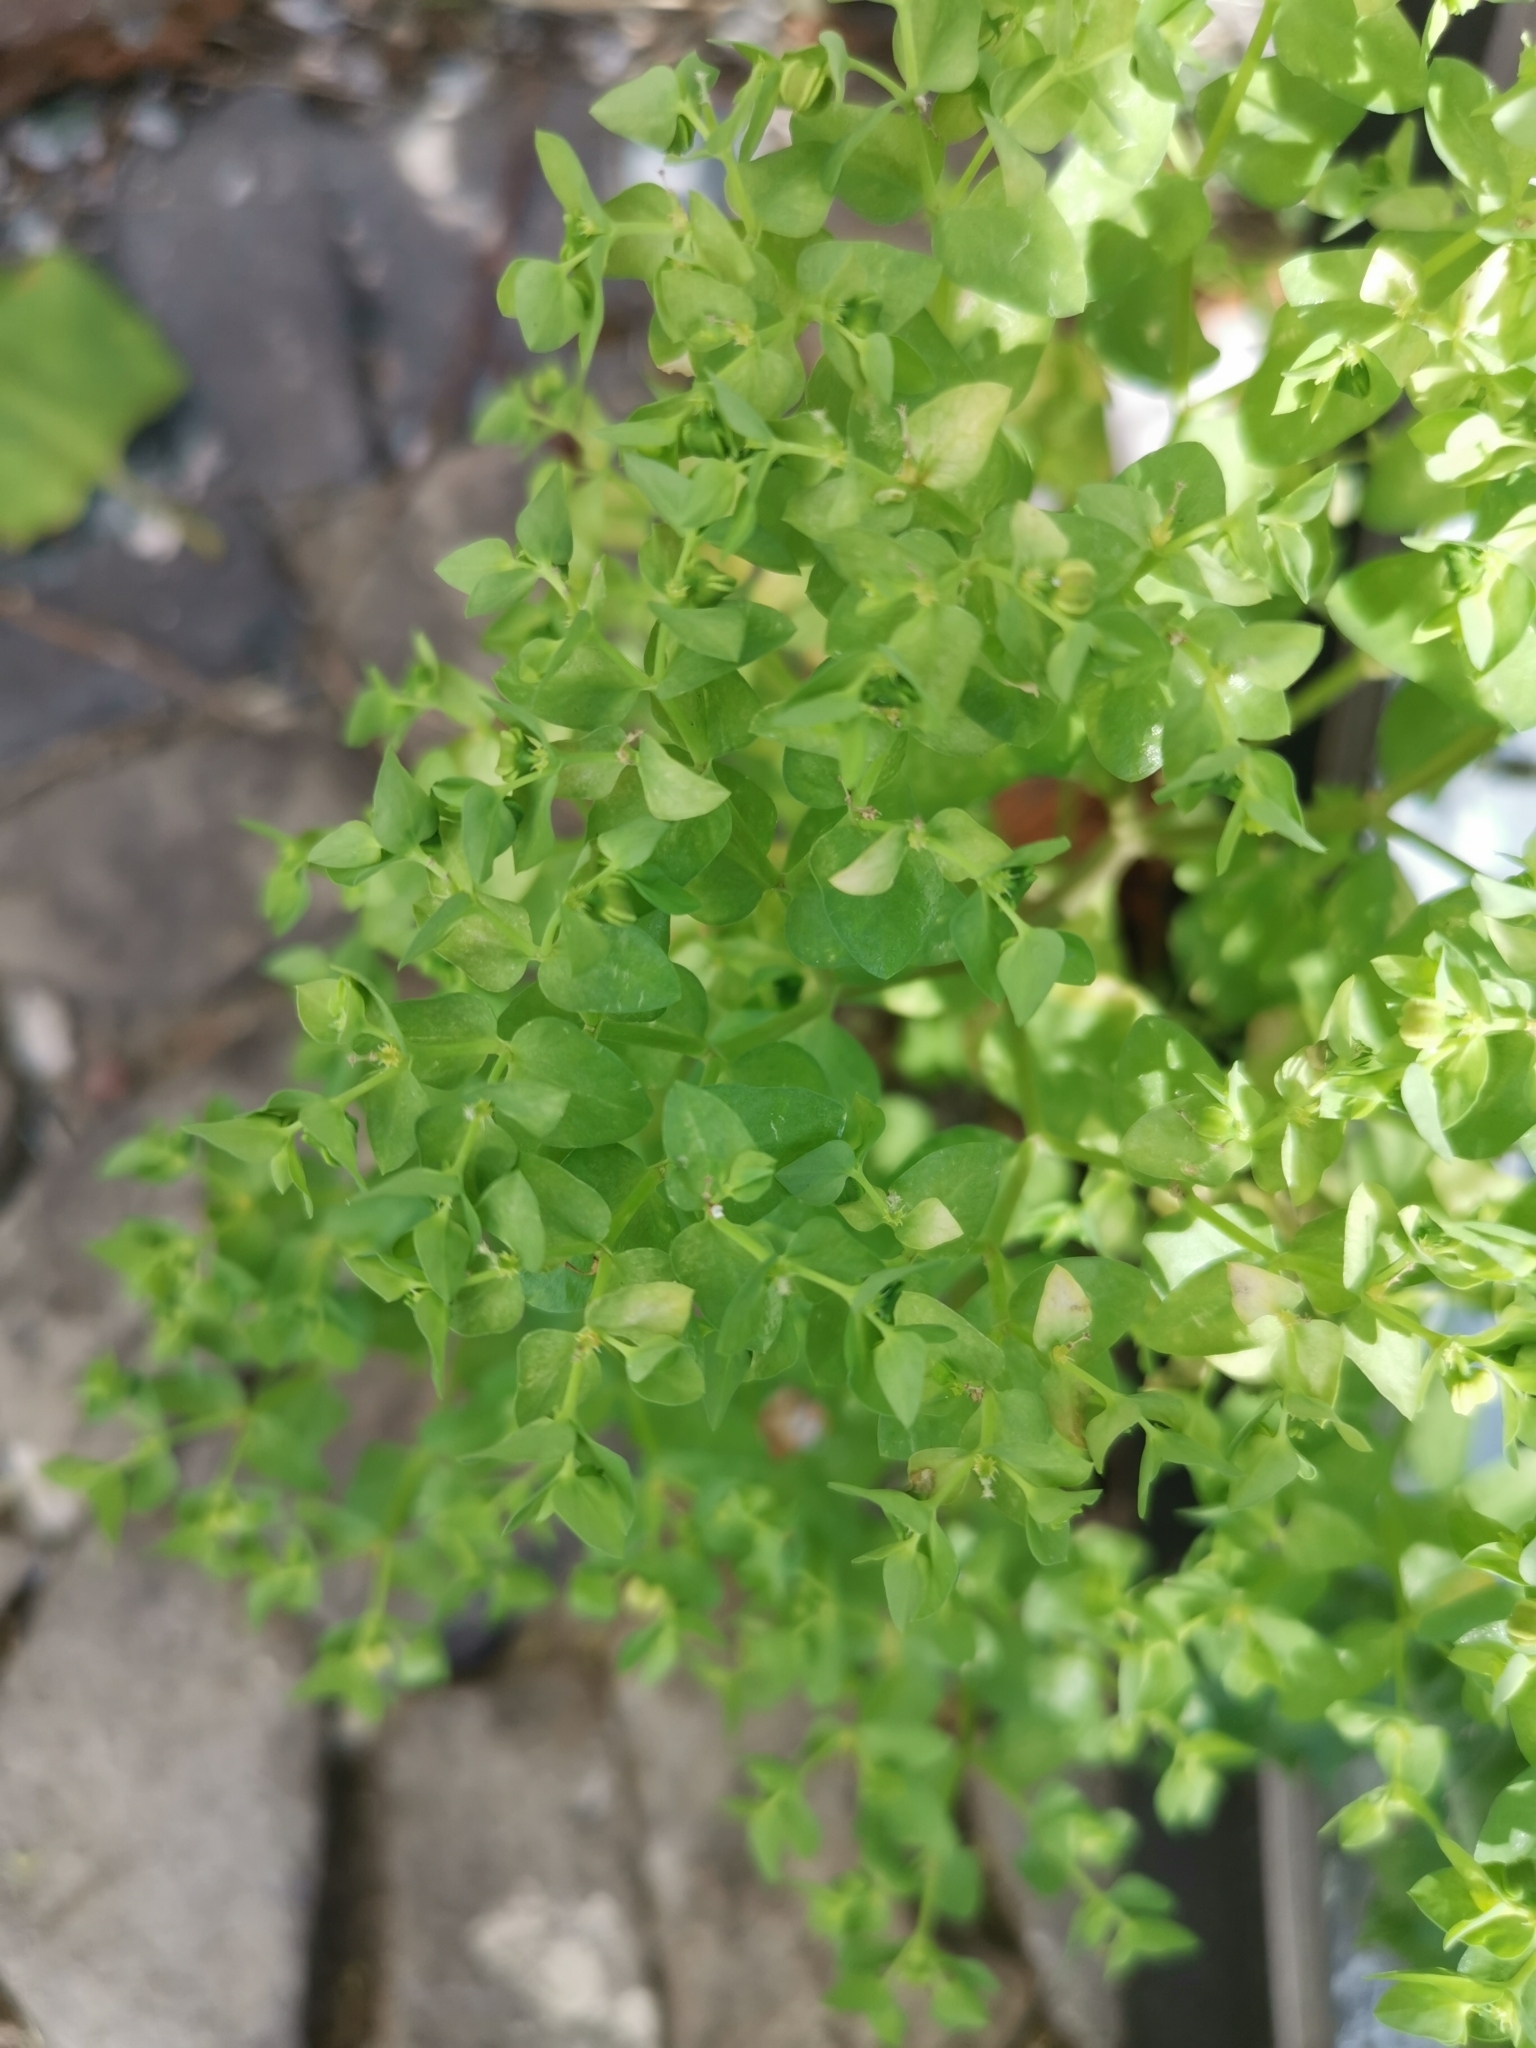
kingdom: Plantae
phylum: Tracheophyta
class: Magnoliopsida
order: Malpighiales
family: Euphorbiaceae
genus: Euphorbia
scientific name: Euphorbia peplus
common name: Petty spurge
